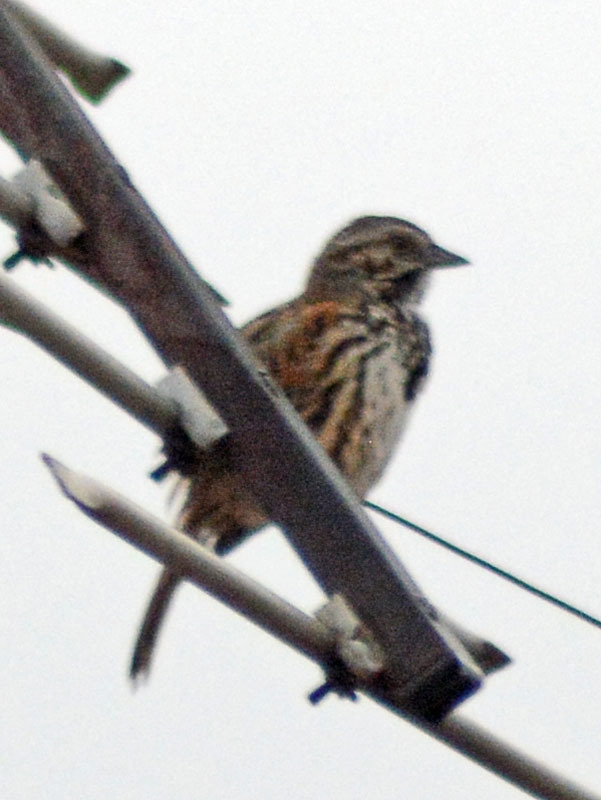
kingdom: Animalia
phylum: Chordata
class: Aves
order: Passeriformes
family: Passerellidae
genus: Melospiza
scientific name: Melospiza melodia
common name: Song sparrow
